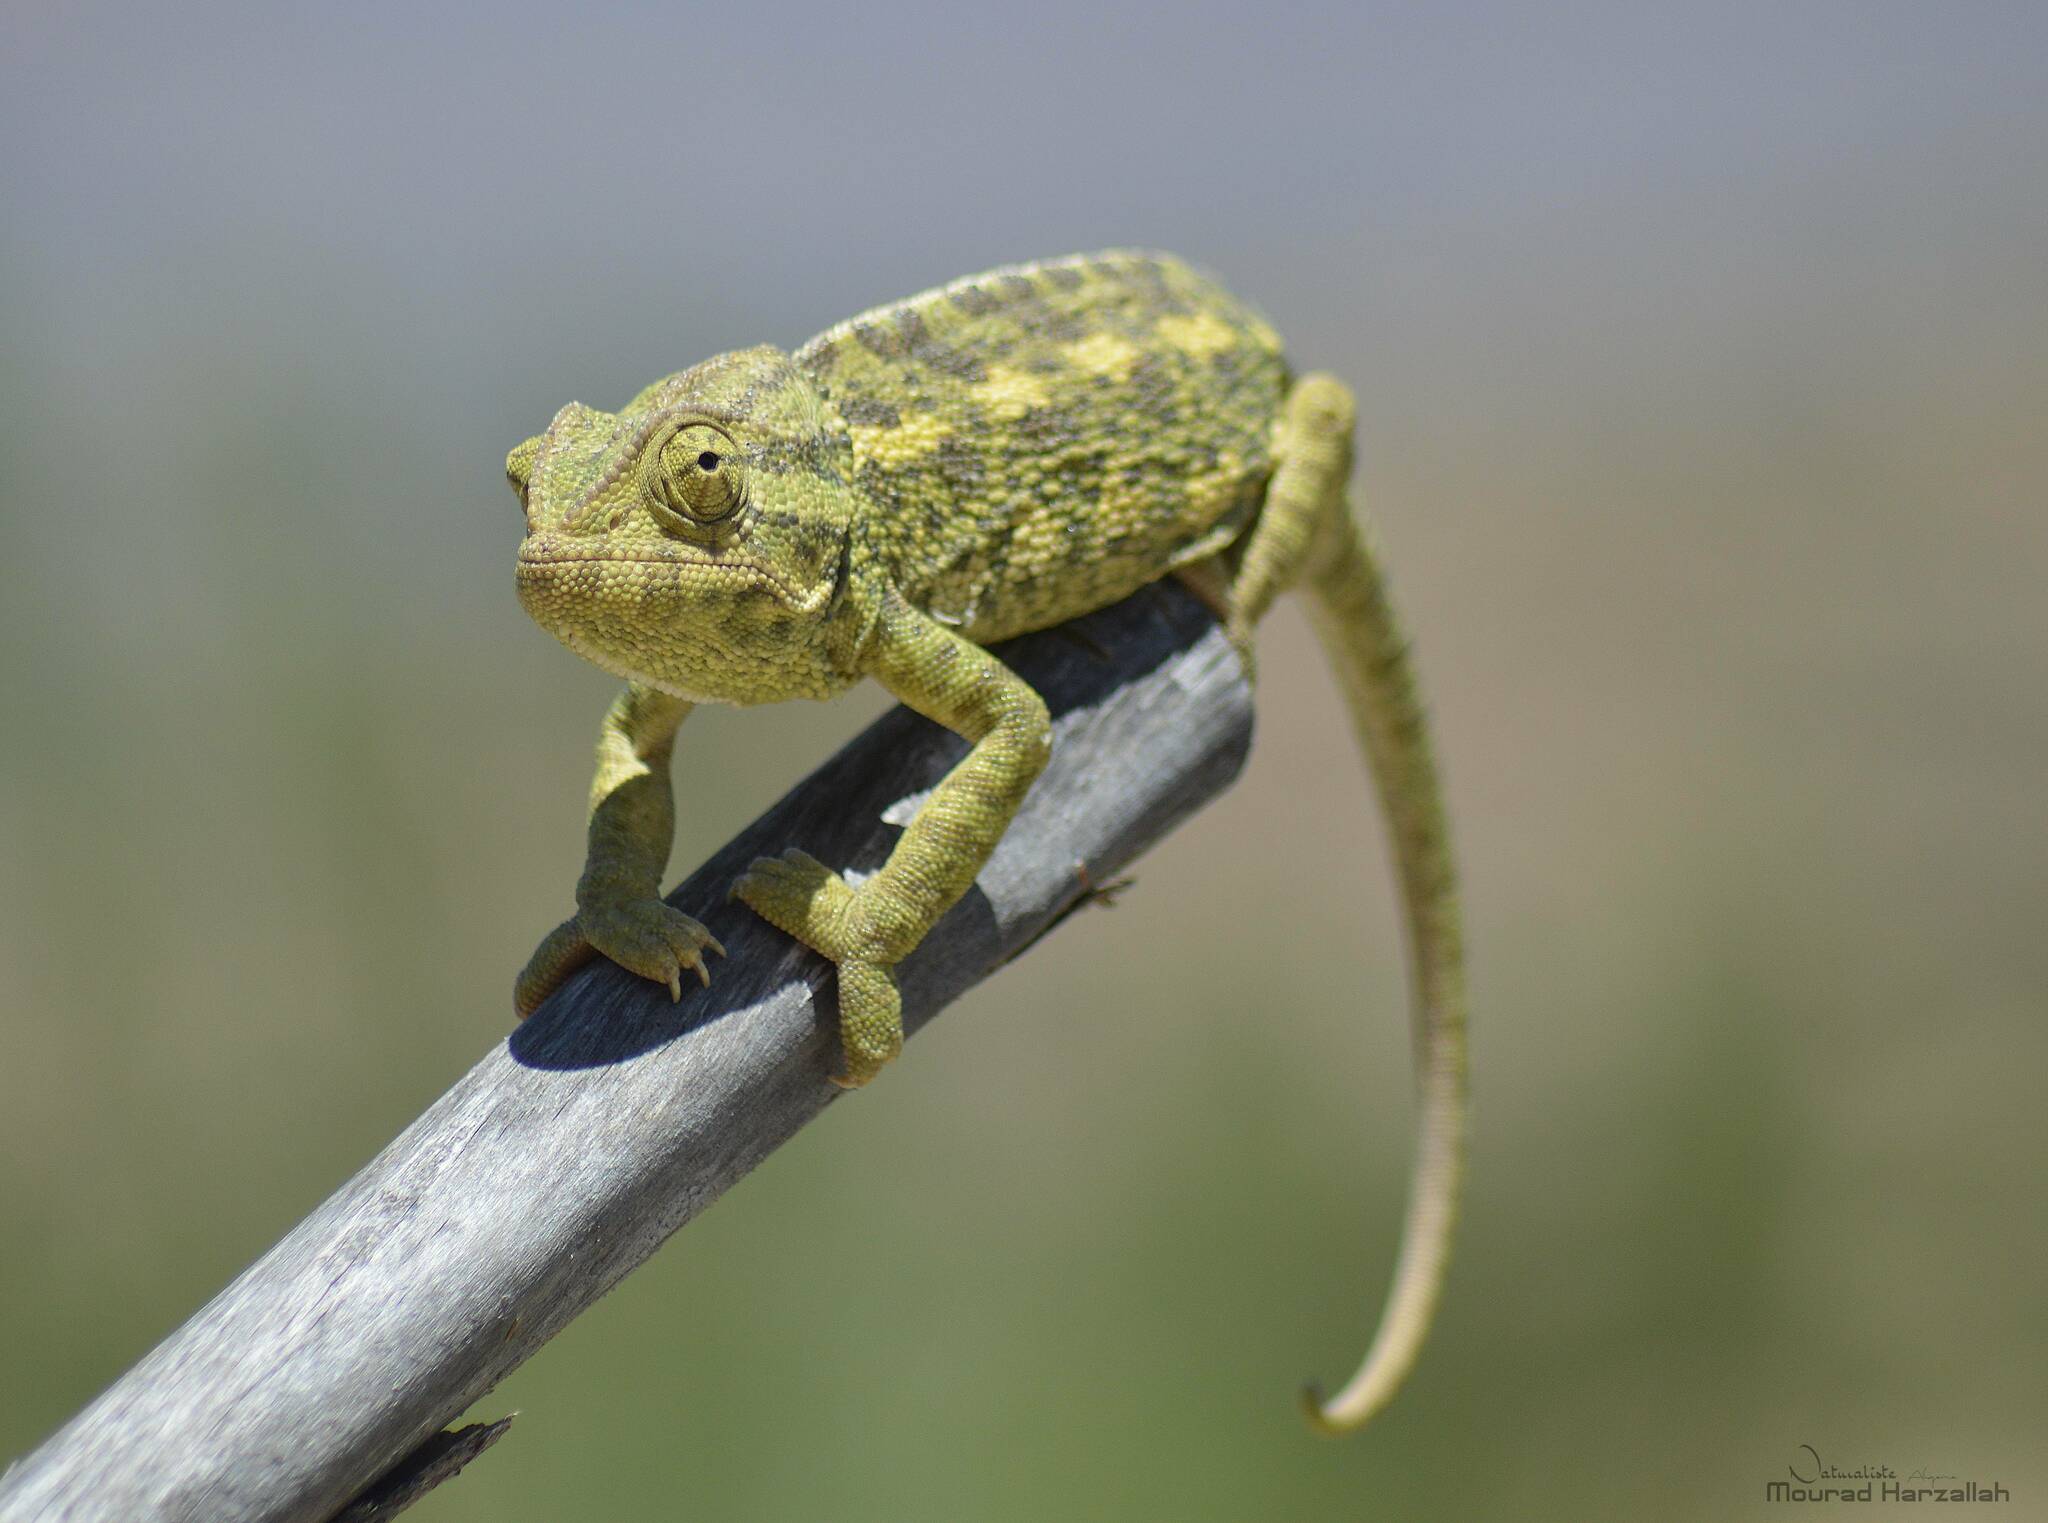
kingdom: Animalia
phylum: Chordata
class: Squamata
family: Chamaeleonidae
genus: Chamaeleo
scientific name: Chamaeleo chamaeleon
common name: Mediterranean chameleon
